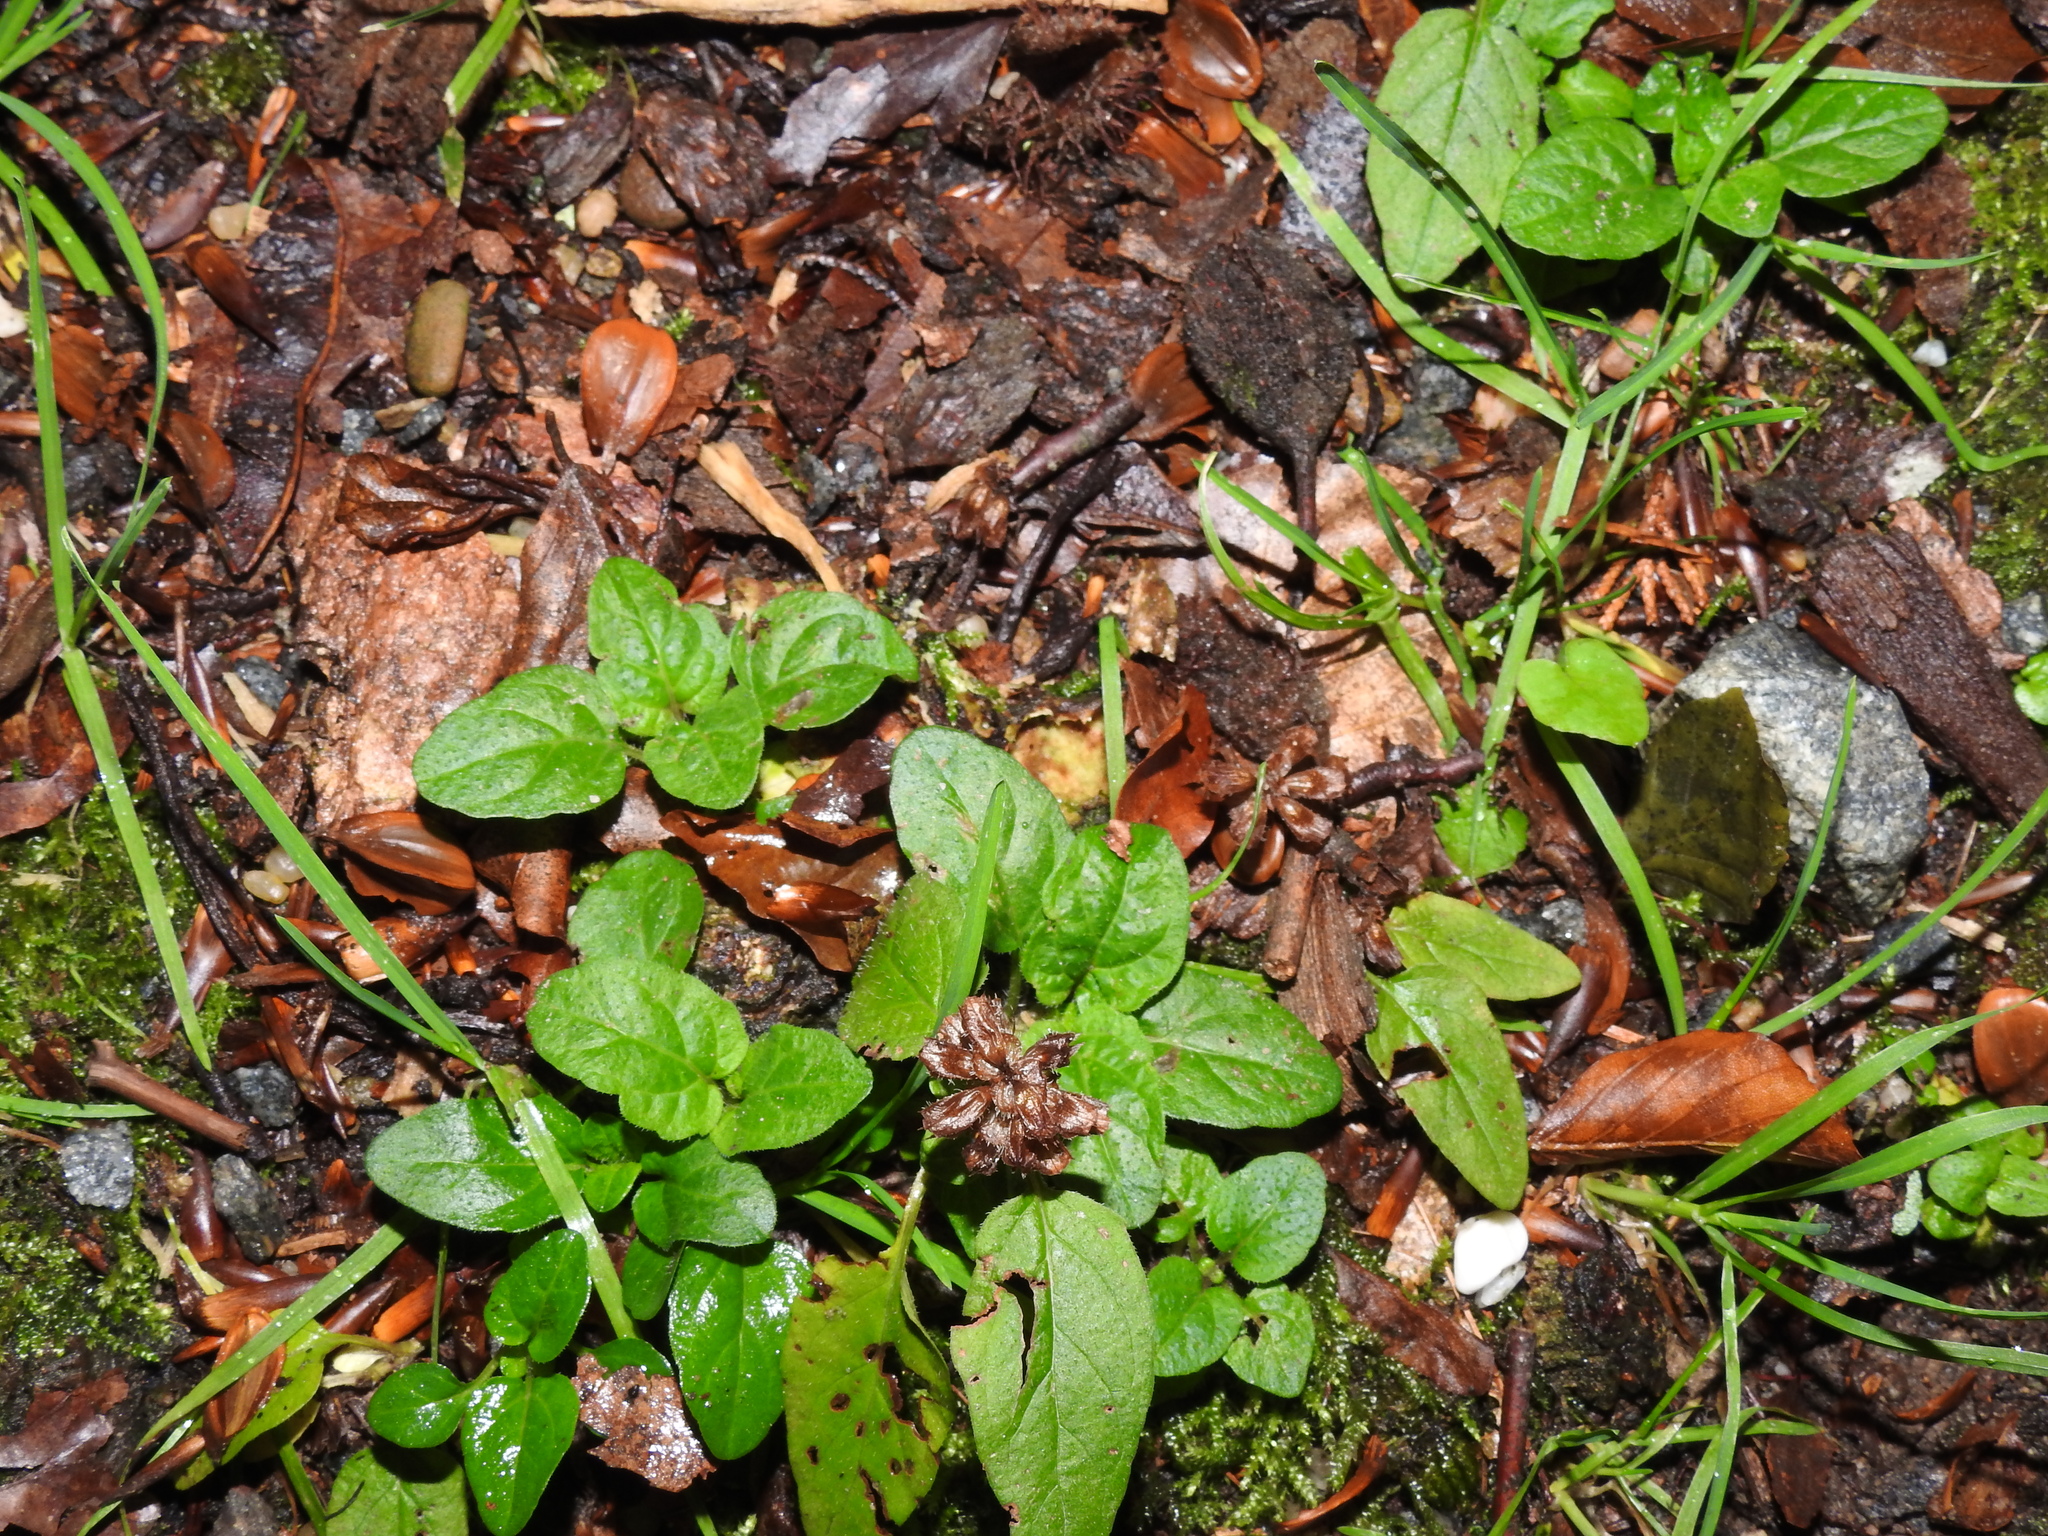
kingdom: Plantae
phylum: Tracheophyta
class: Magnoliopsida
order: Lamiales
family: Lamiaceae
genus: Ajuga
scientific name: Ajuga reptans
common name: Bugle
